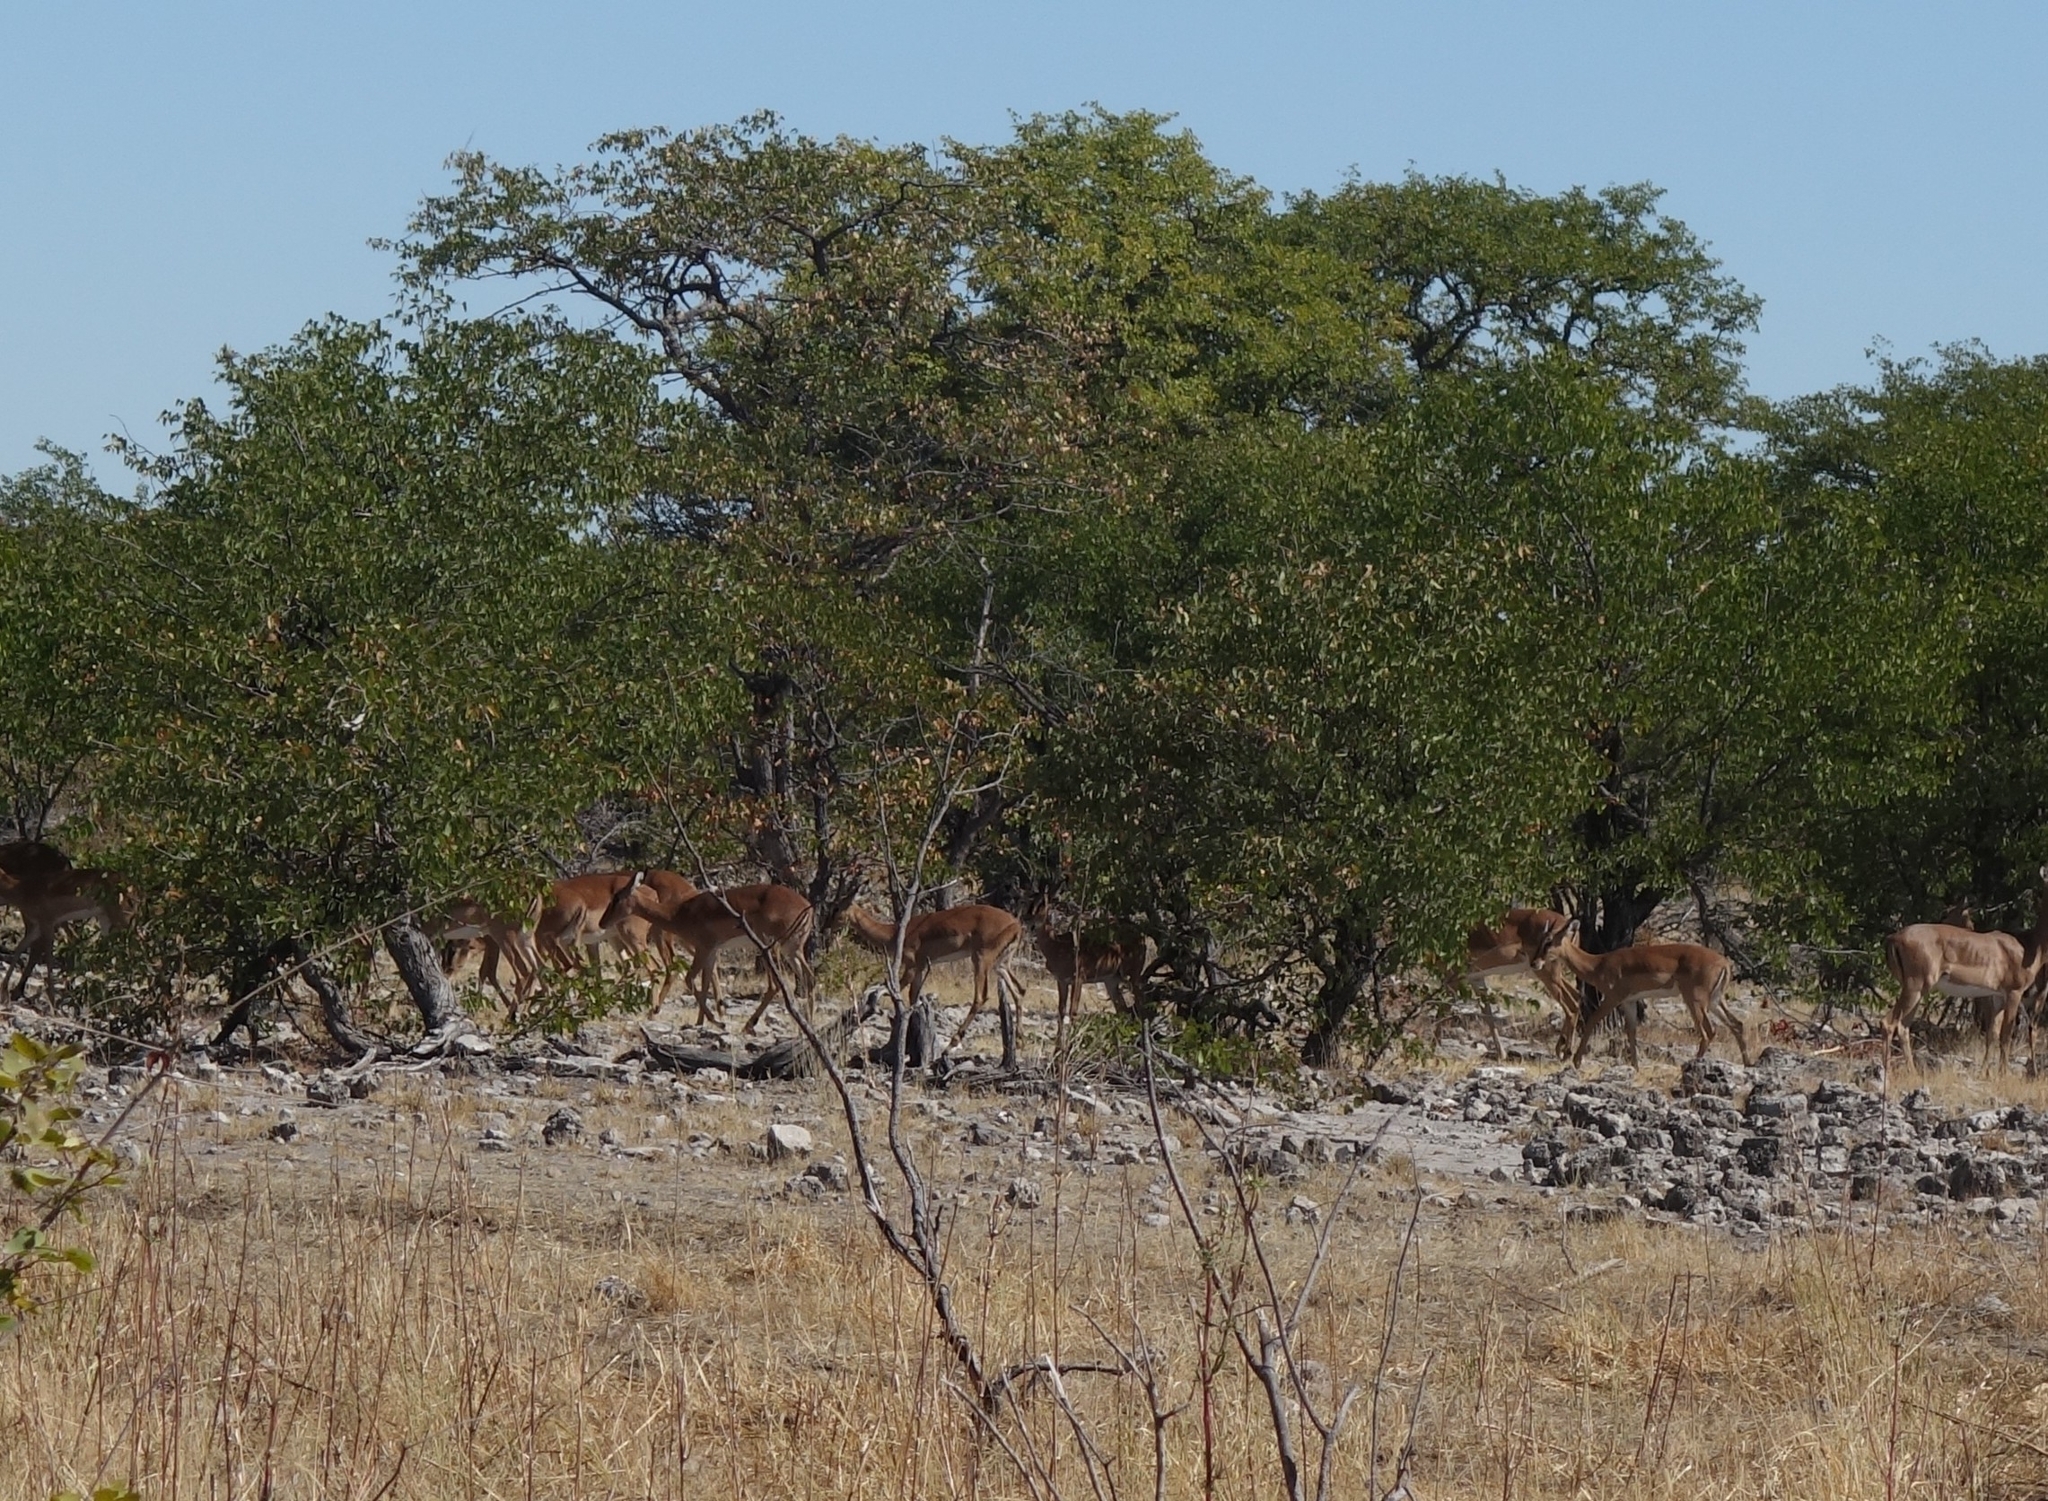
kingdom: Animalia
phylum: Chordata
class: Mammalia
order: Artiodactyla
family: Bovidae
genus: Aepyceros
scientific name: Aepyceros melampus
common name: Impala
